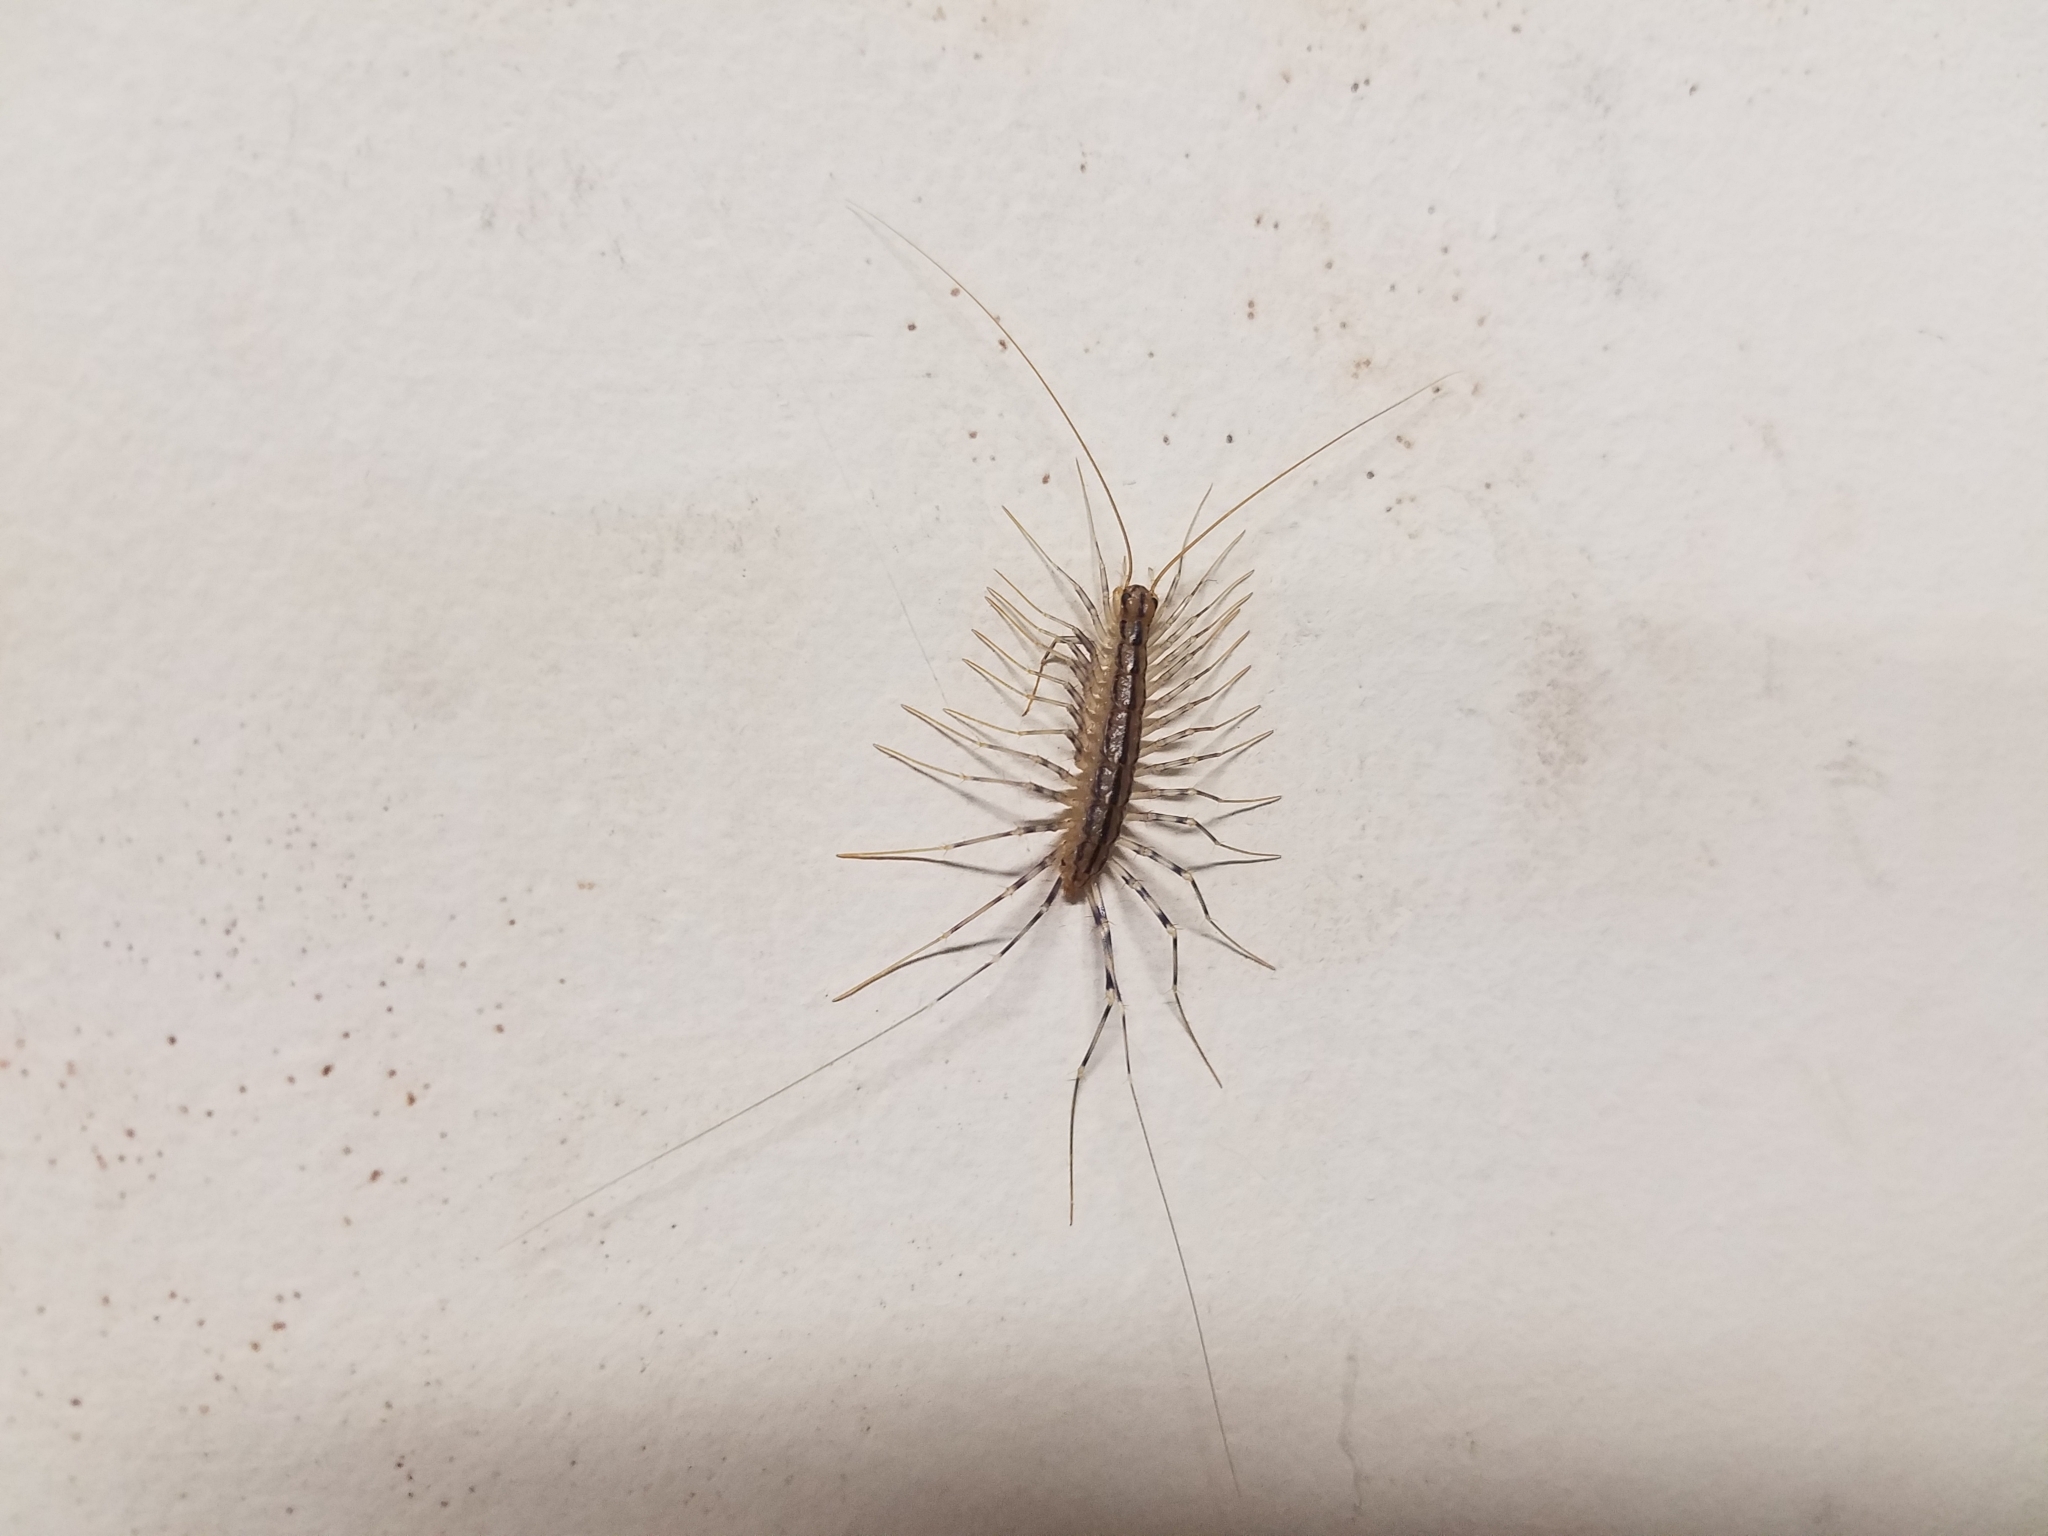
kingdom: Animalia
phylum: Arthropoda
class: Chilopoda
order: Scutigeromorpha
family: Scutigeridae
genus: Scutigera
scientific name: Scutigera coleoptrata
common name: House centipede
